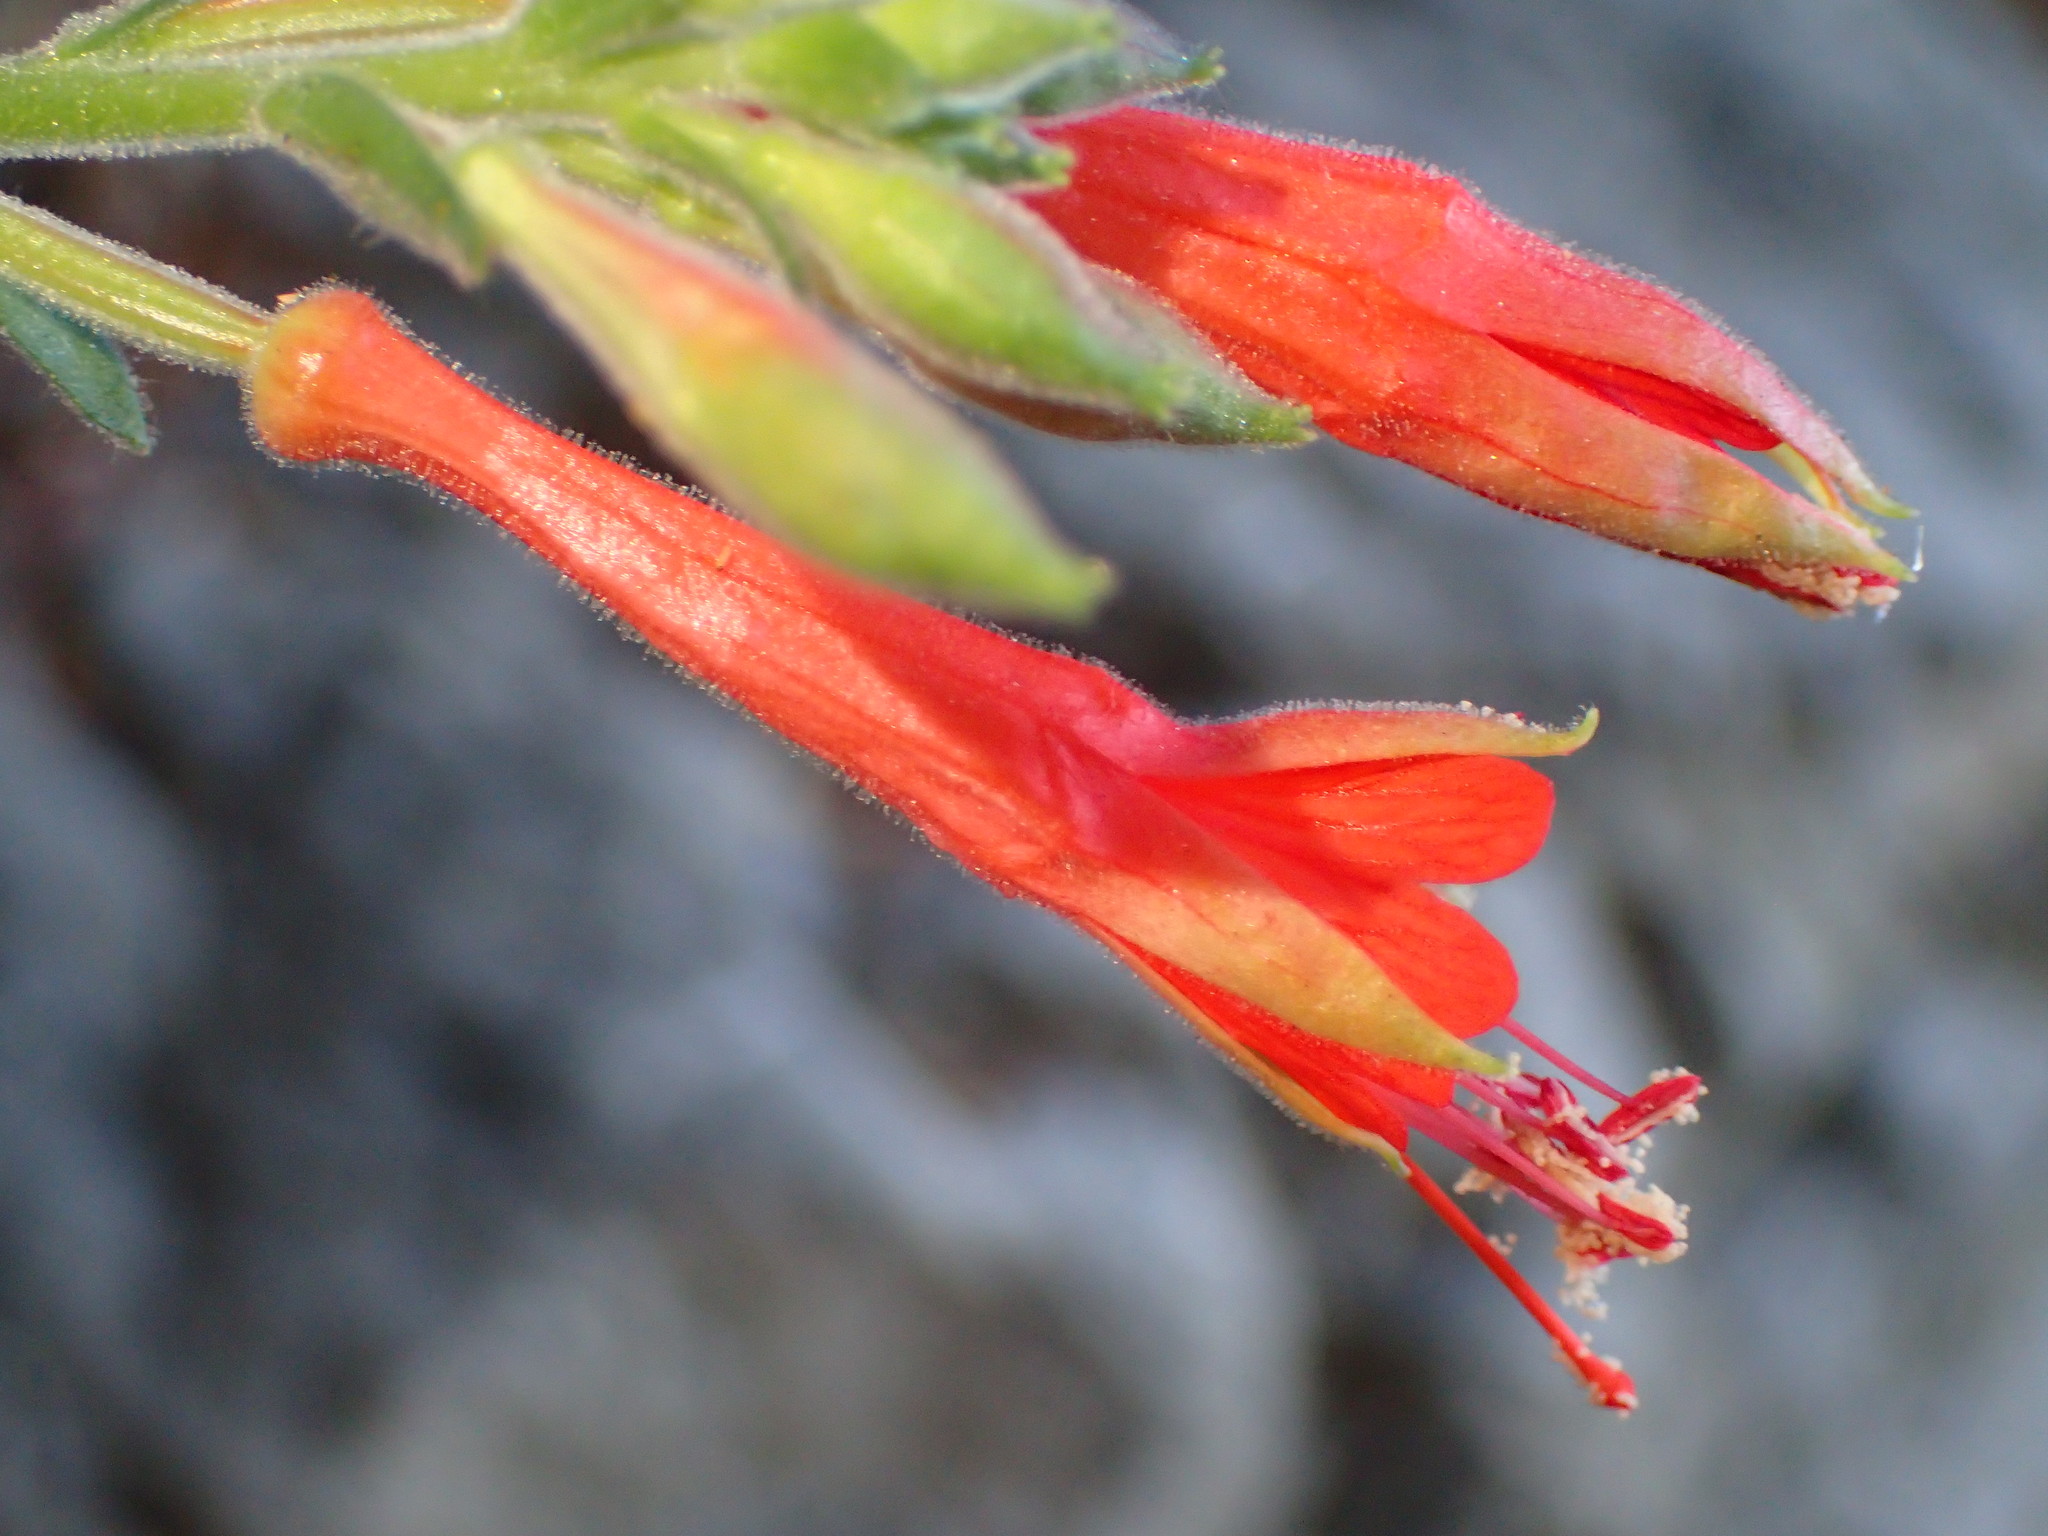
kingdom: Plantae
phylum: Tracheophyta
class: Magnoliopsida
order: Myrtales
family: Onagraceae
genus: Epilobium
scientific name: Epilobium canum
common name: California-fuchsia
